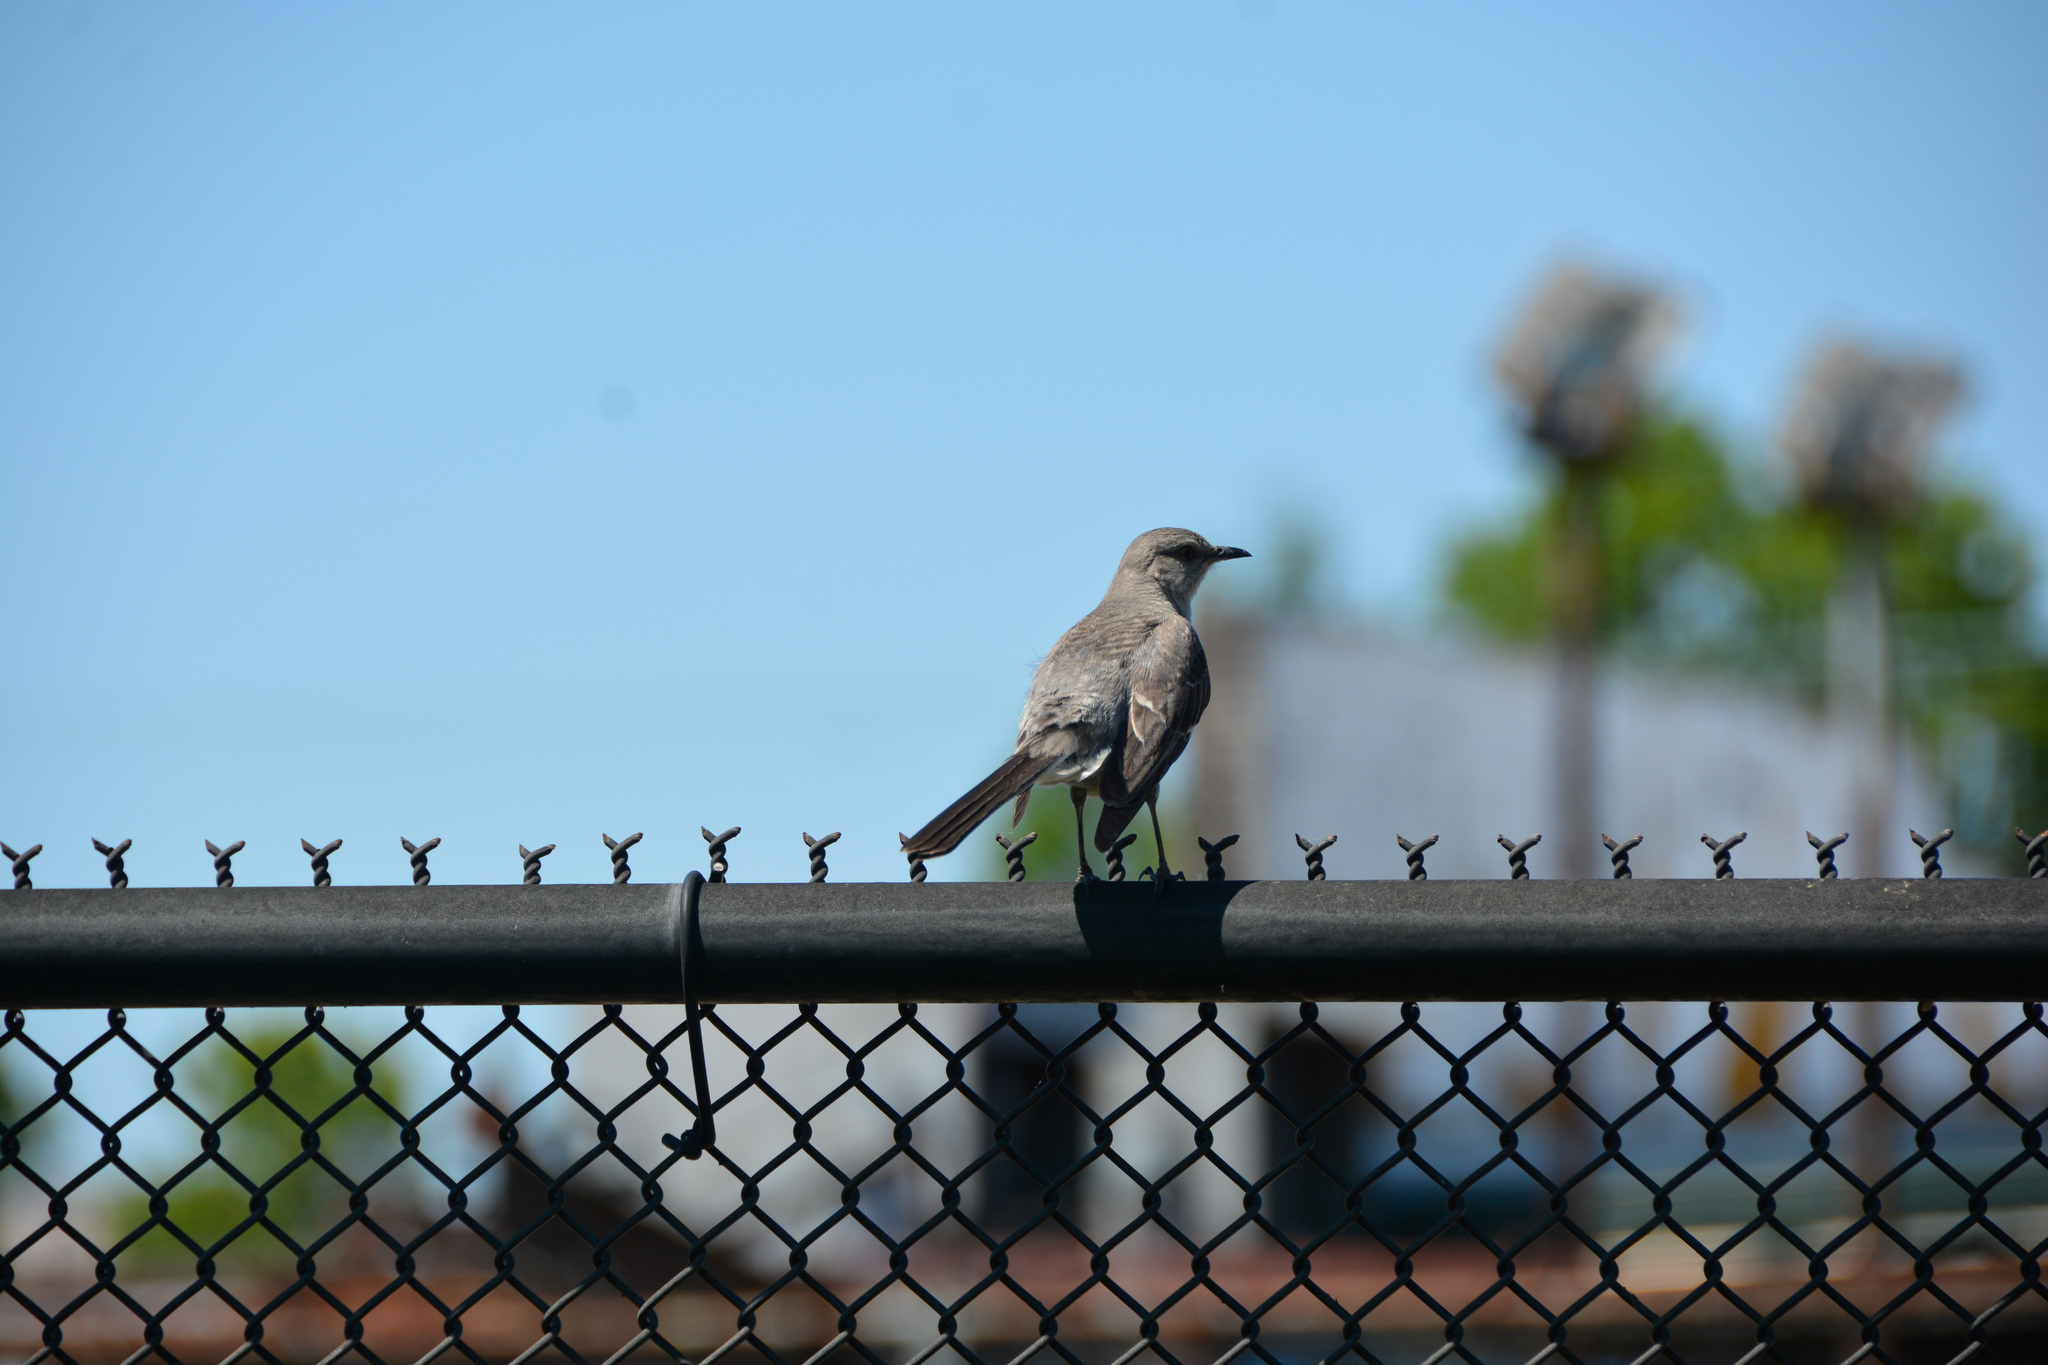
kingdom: Animalia
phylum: Chordata
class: Aves
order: Passeriformes
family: Mimidae
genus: Mimus
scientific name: Mimus polyglottos
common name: Northern mockingbird
